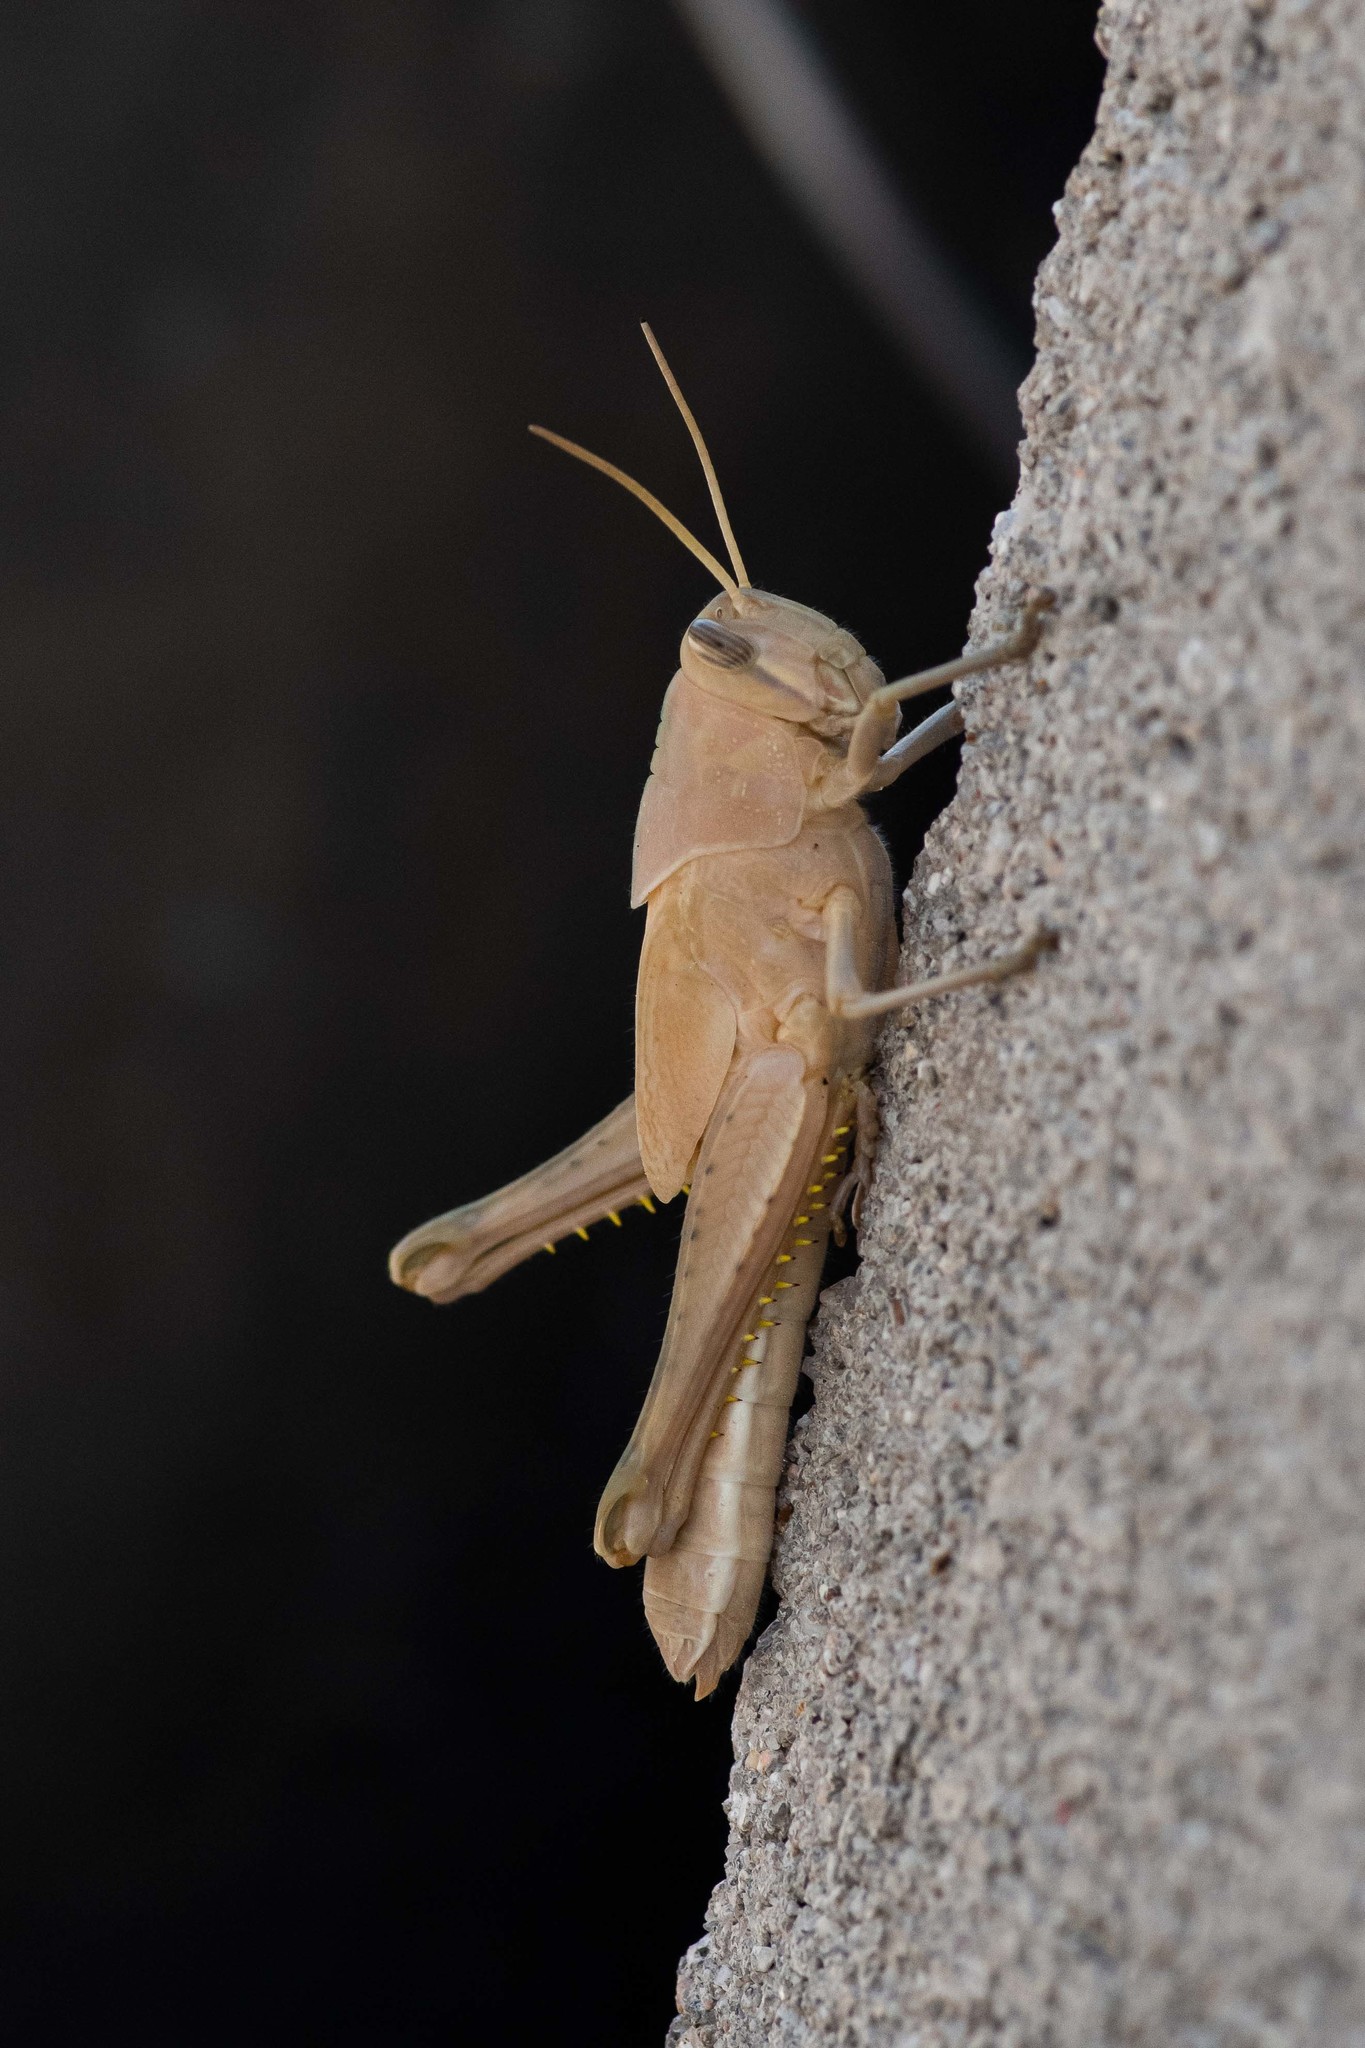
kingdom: Animalia
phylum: Arthropoda
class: Insecta
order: Orthoptera
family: Acrididae
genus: Schistocerca
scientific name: Schistocerca nitens
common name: Vagrant grasshopper
